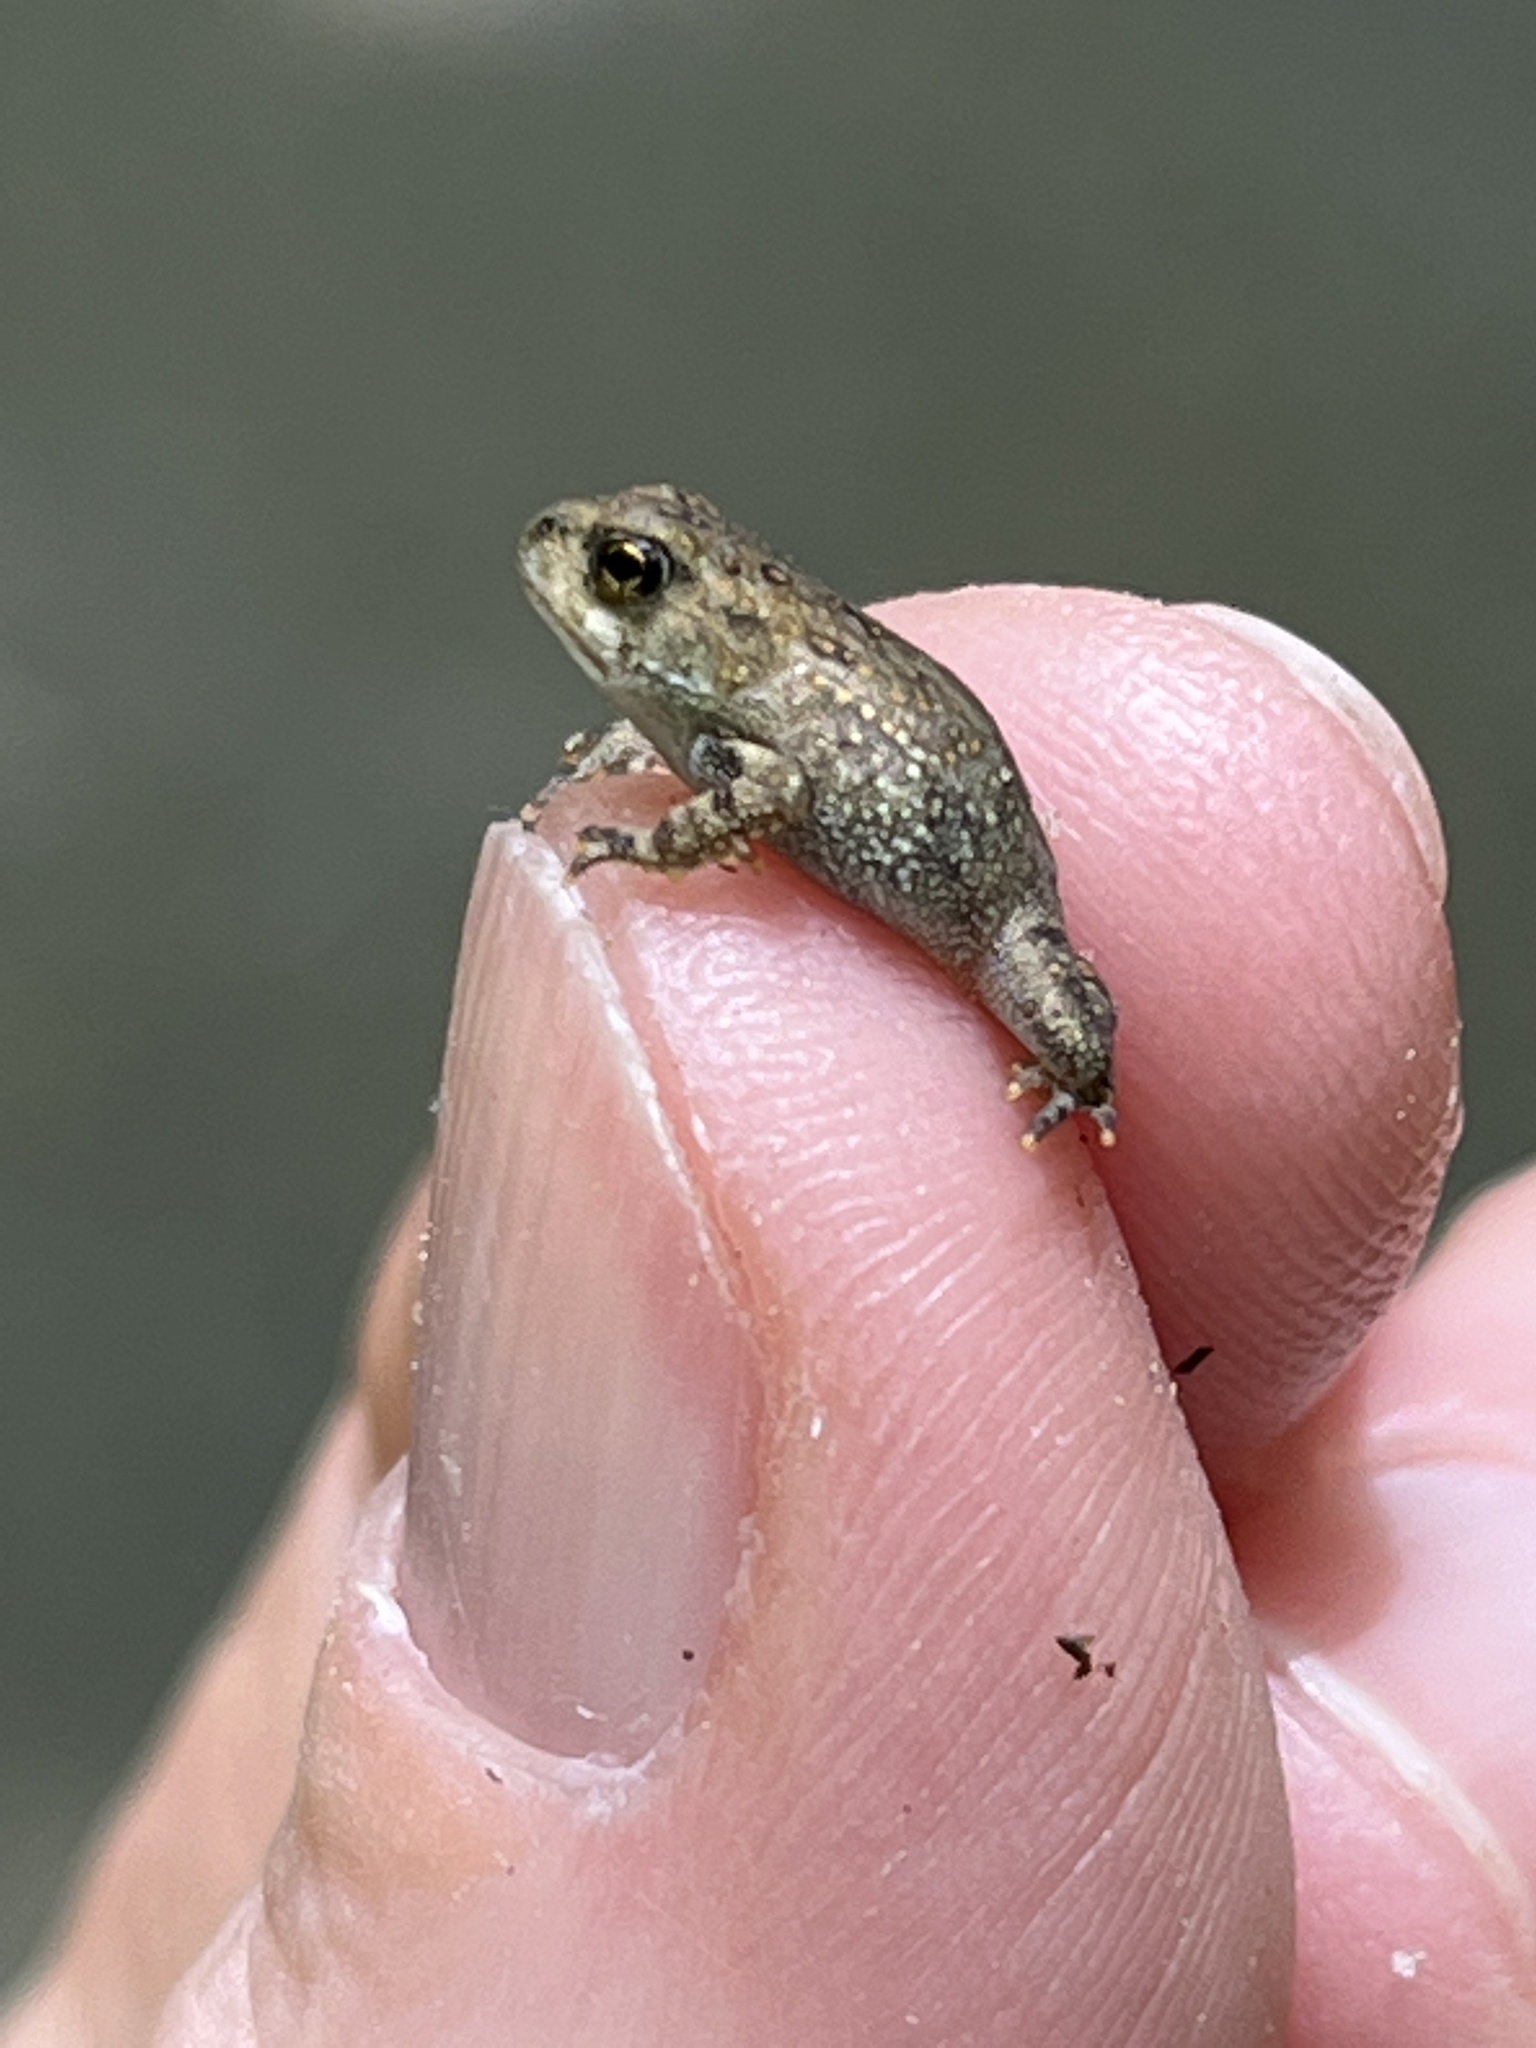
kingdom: Animalia
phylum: Chordata
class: Amphibia
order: Anura
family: Bufonidae
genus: Anaxyrus
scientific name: Anaxyrus americanus
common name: American toad
